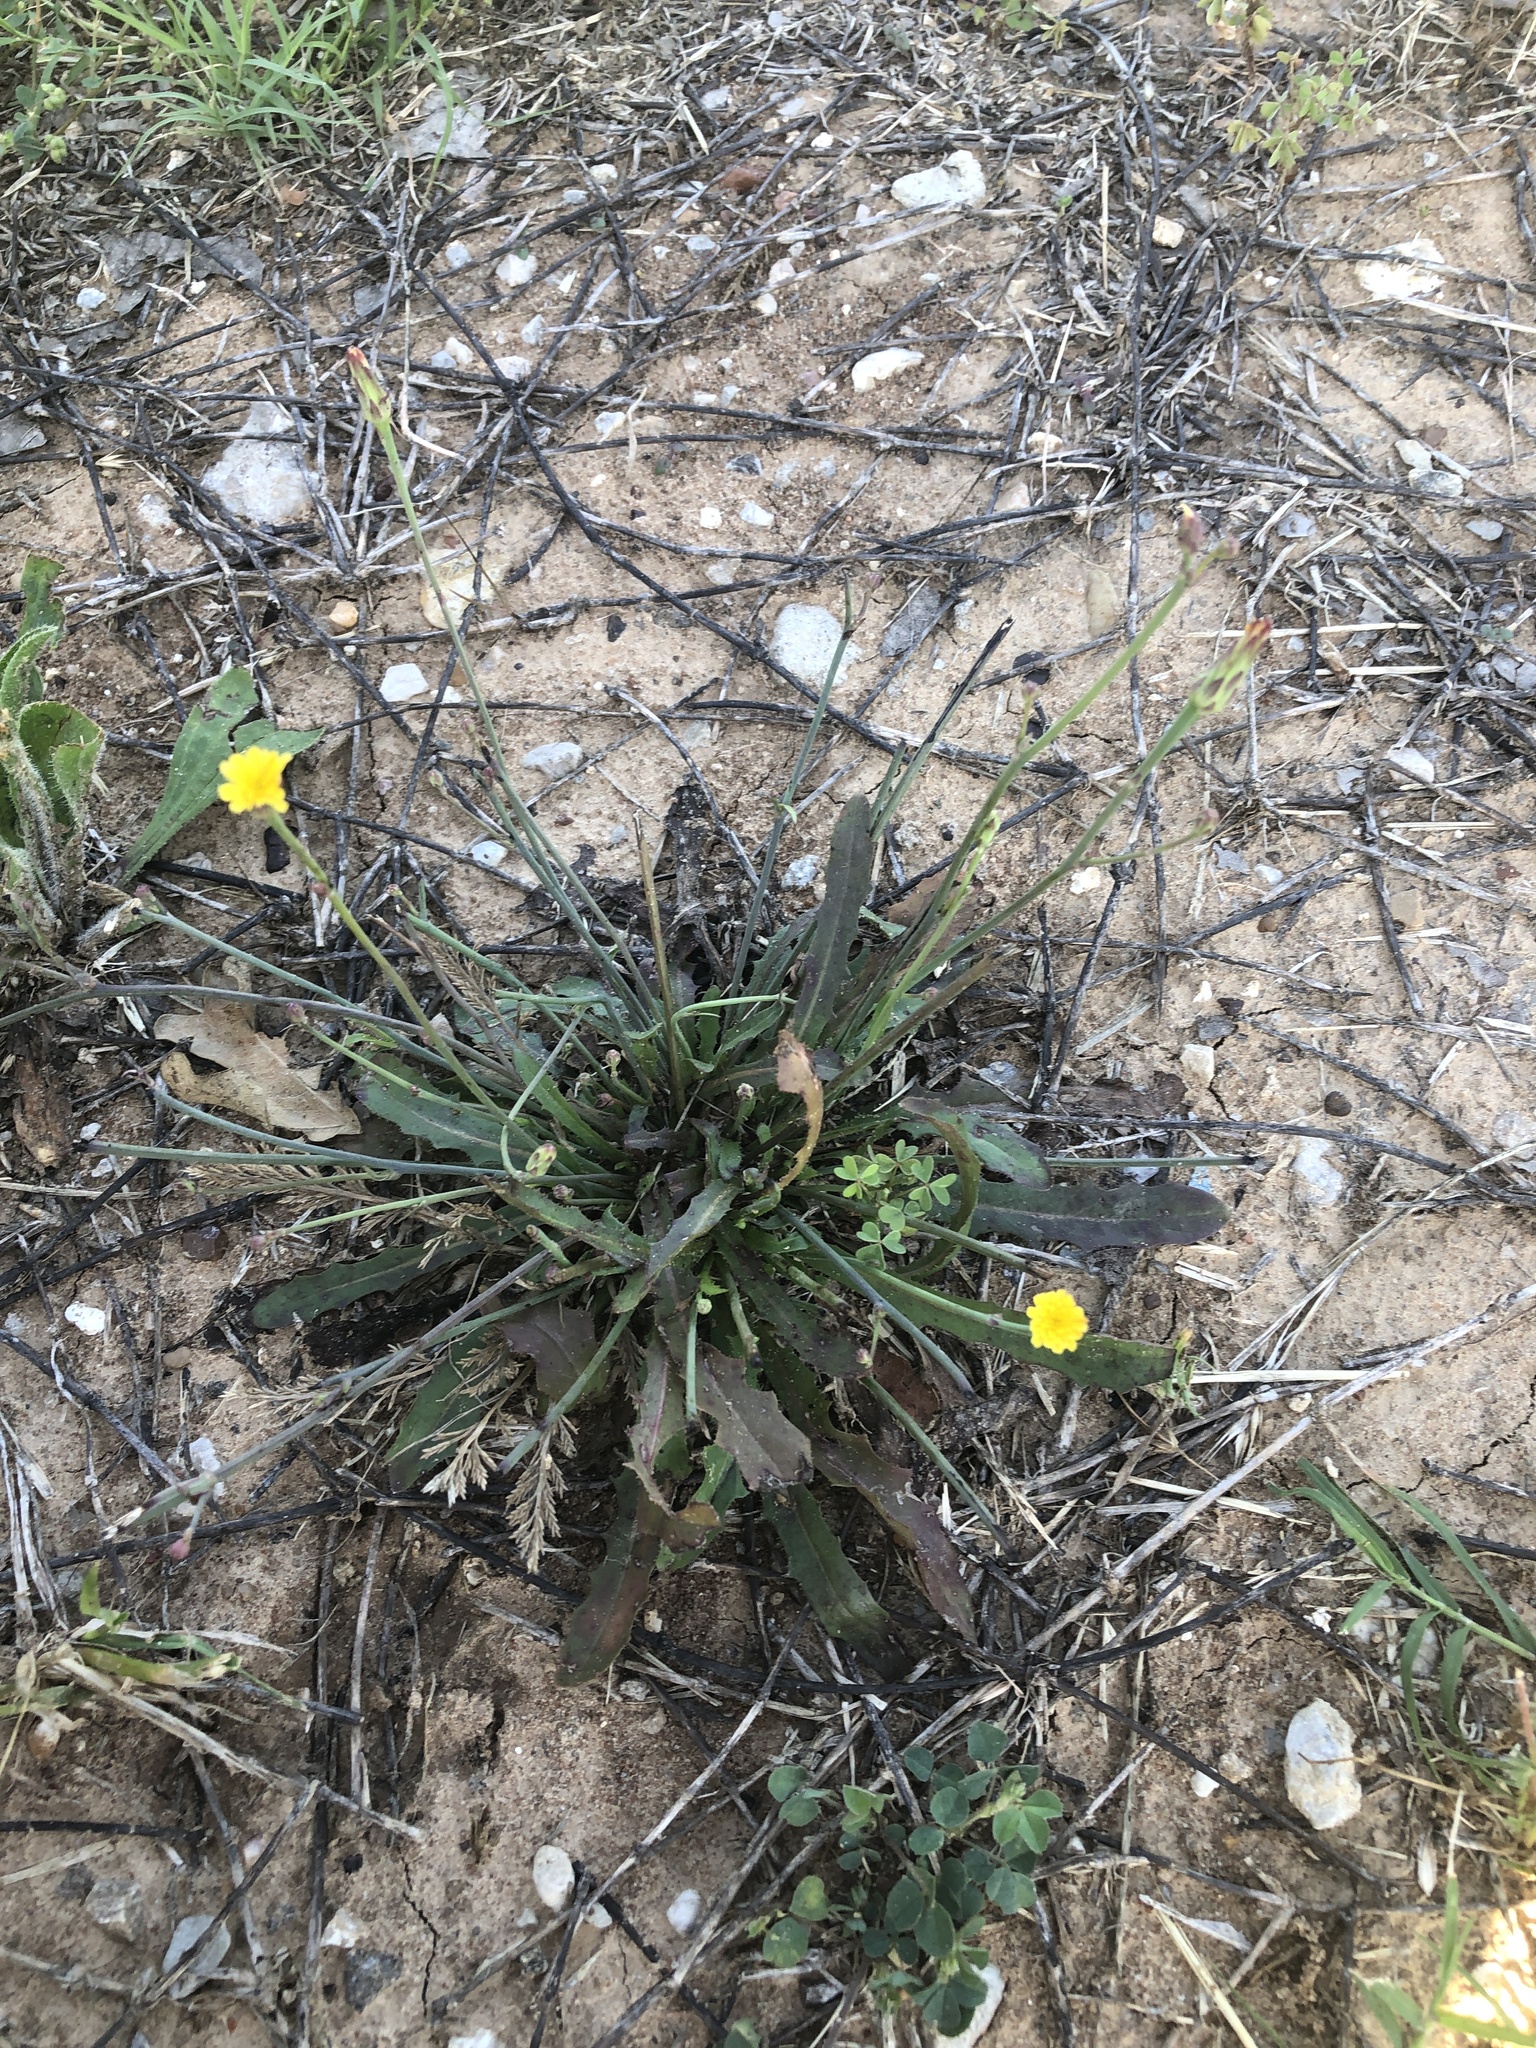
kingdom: Plantae
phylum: Tracheophyta
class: Magnoliopsida
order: Asterales
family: Asteraceae
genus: Hypochaeris
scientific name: Hypochaeris glabra
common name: Smooth catsear
